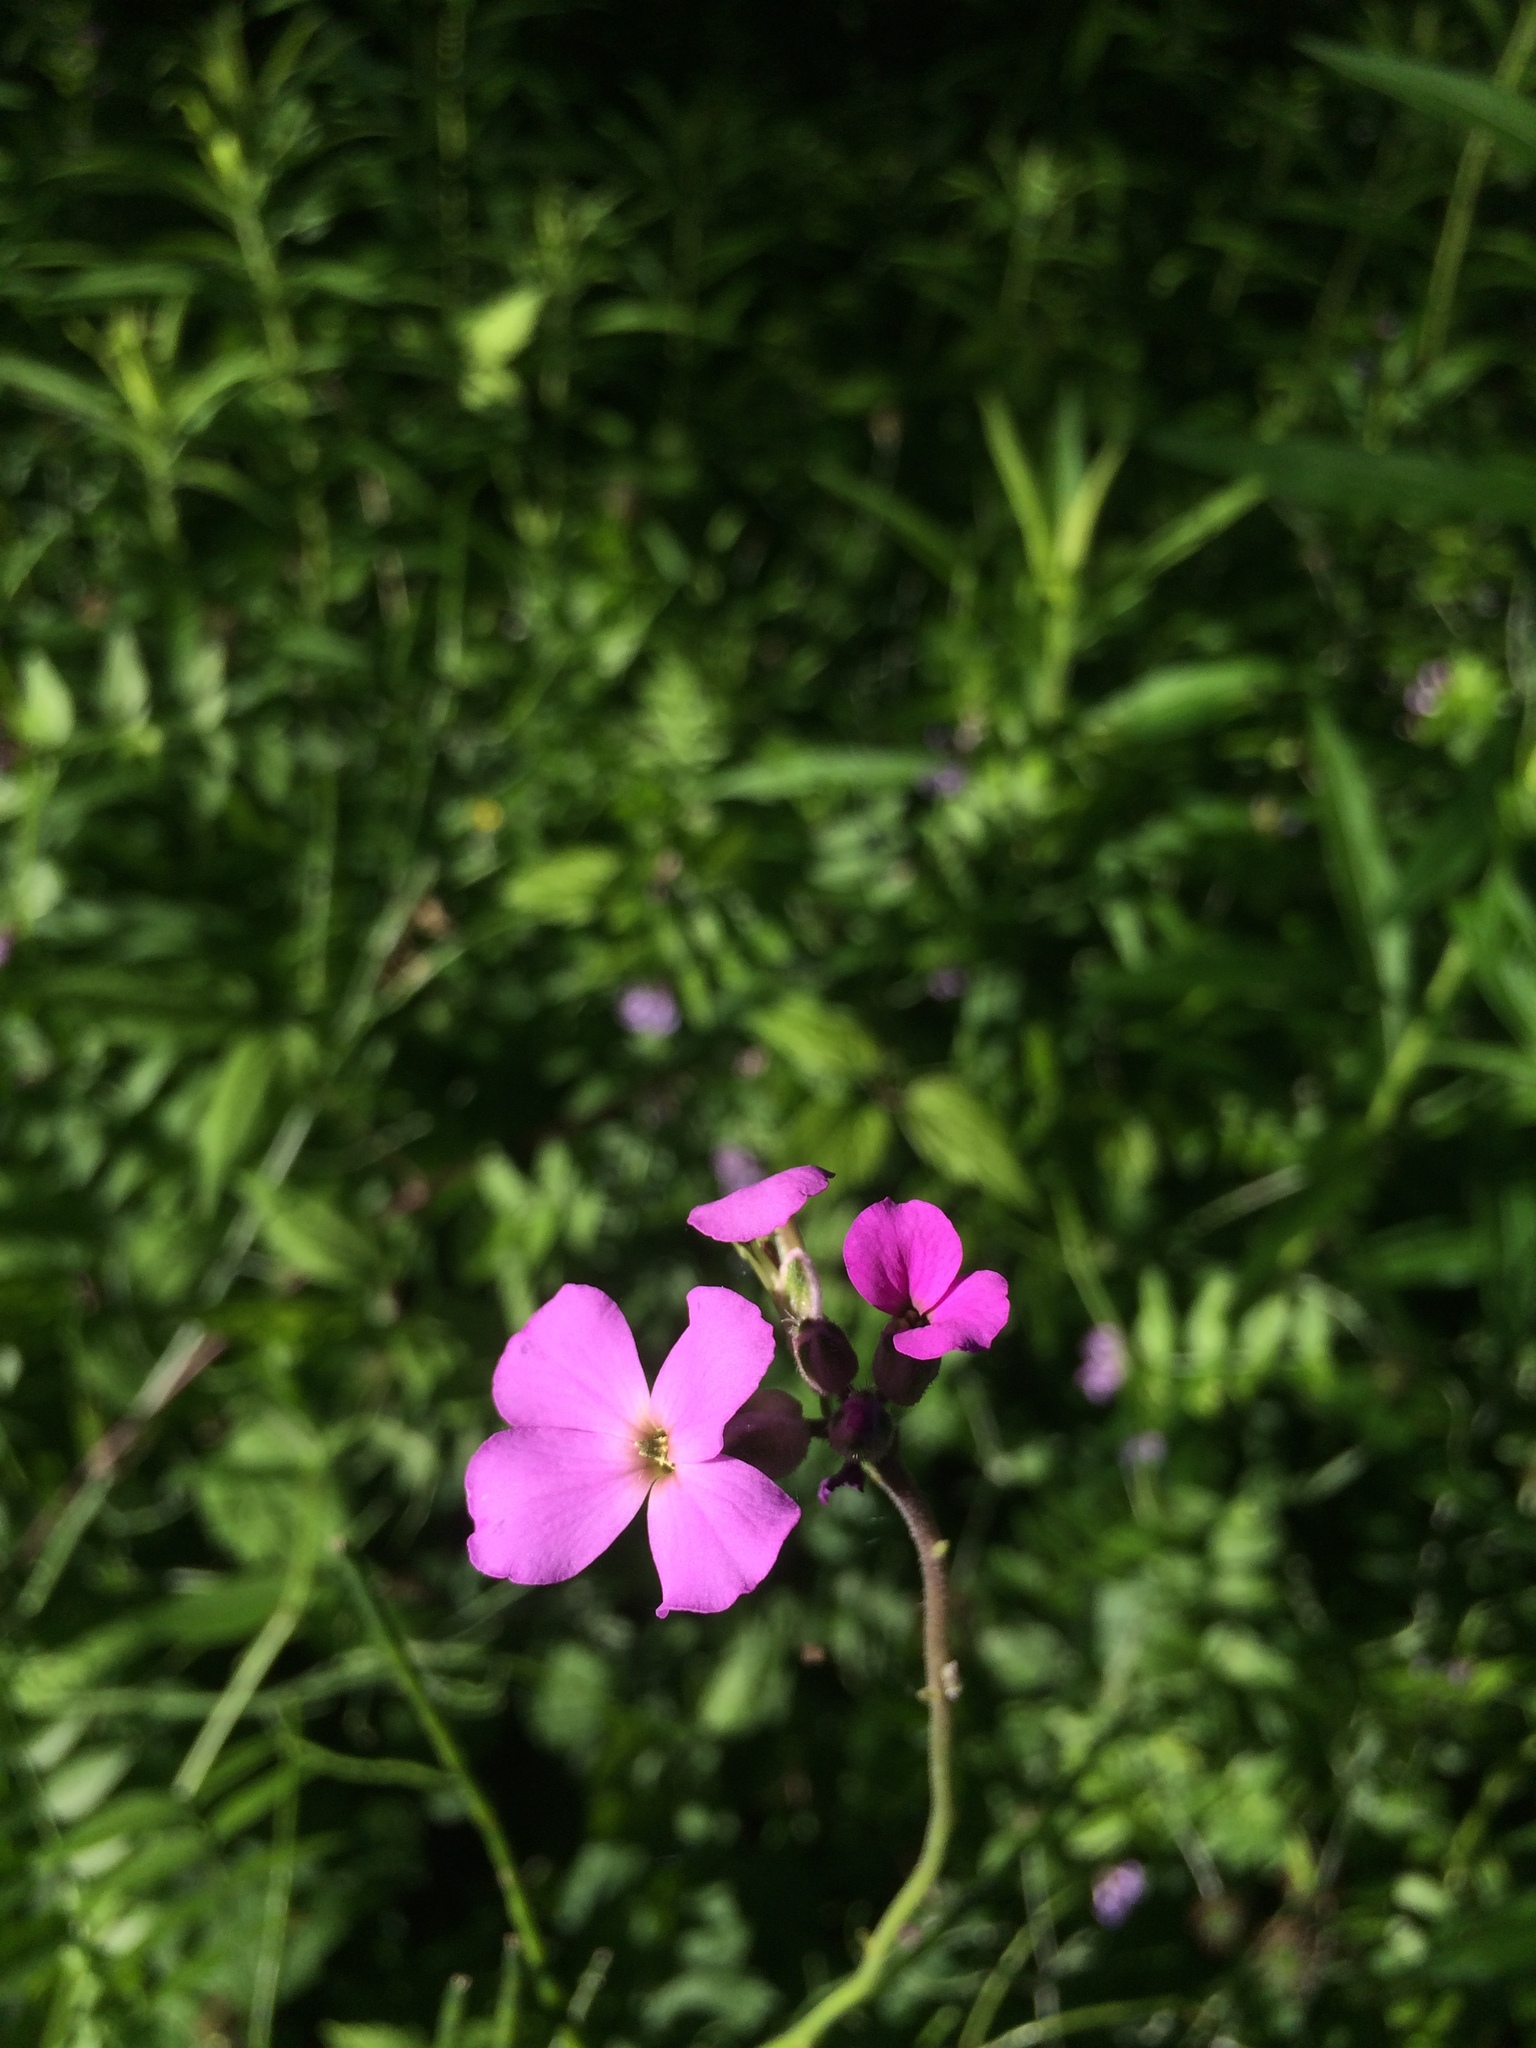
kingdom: Plantae
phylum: Tracheophyta
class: Magnoliopsida
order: Brassicales
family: Brassicaceae
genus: Hesperis
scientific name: Hesperis matronalis
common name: Dame's-violet
